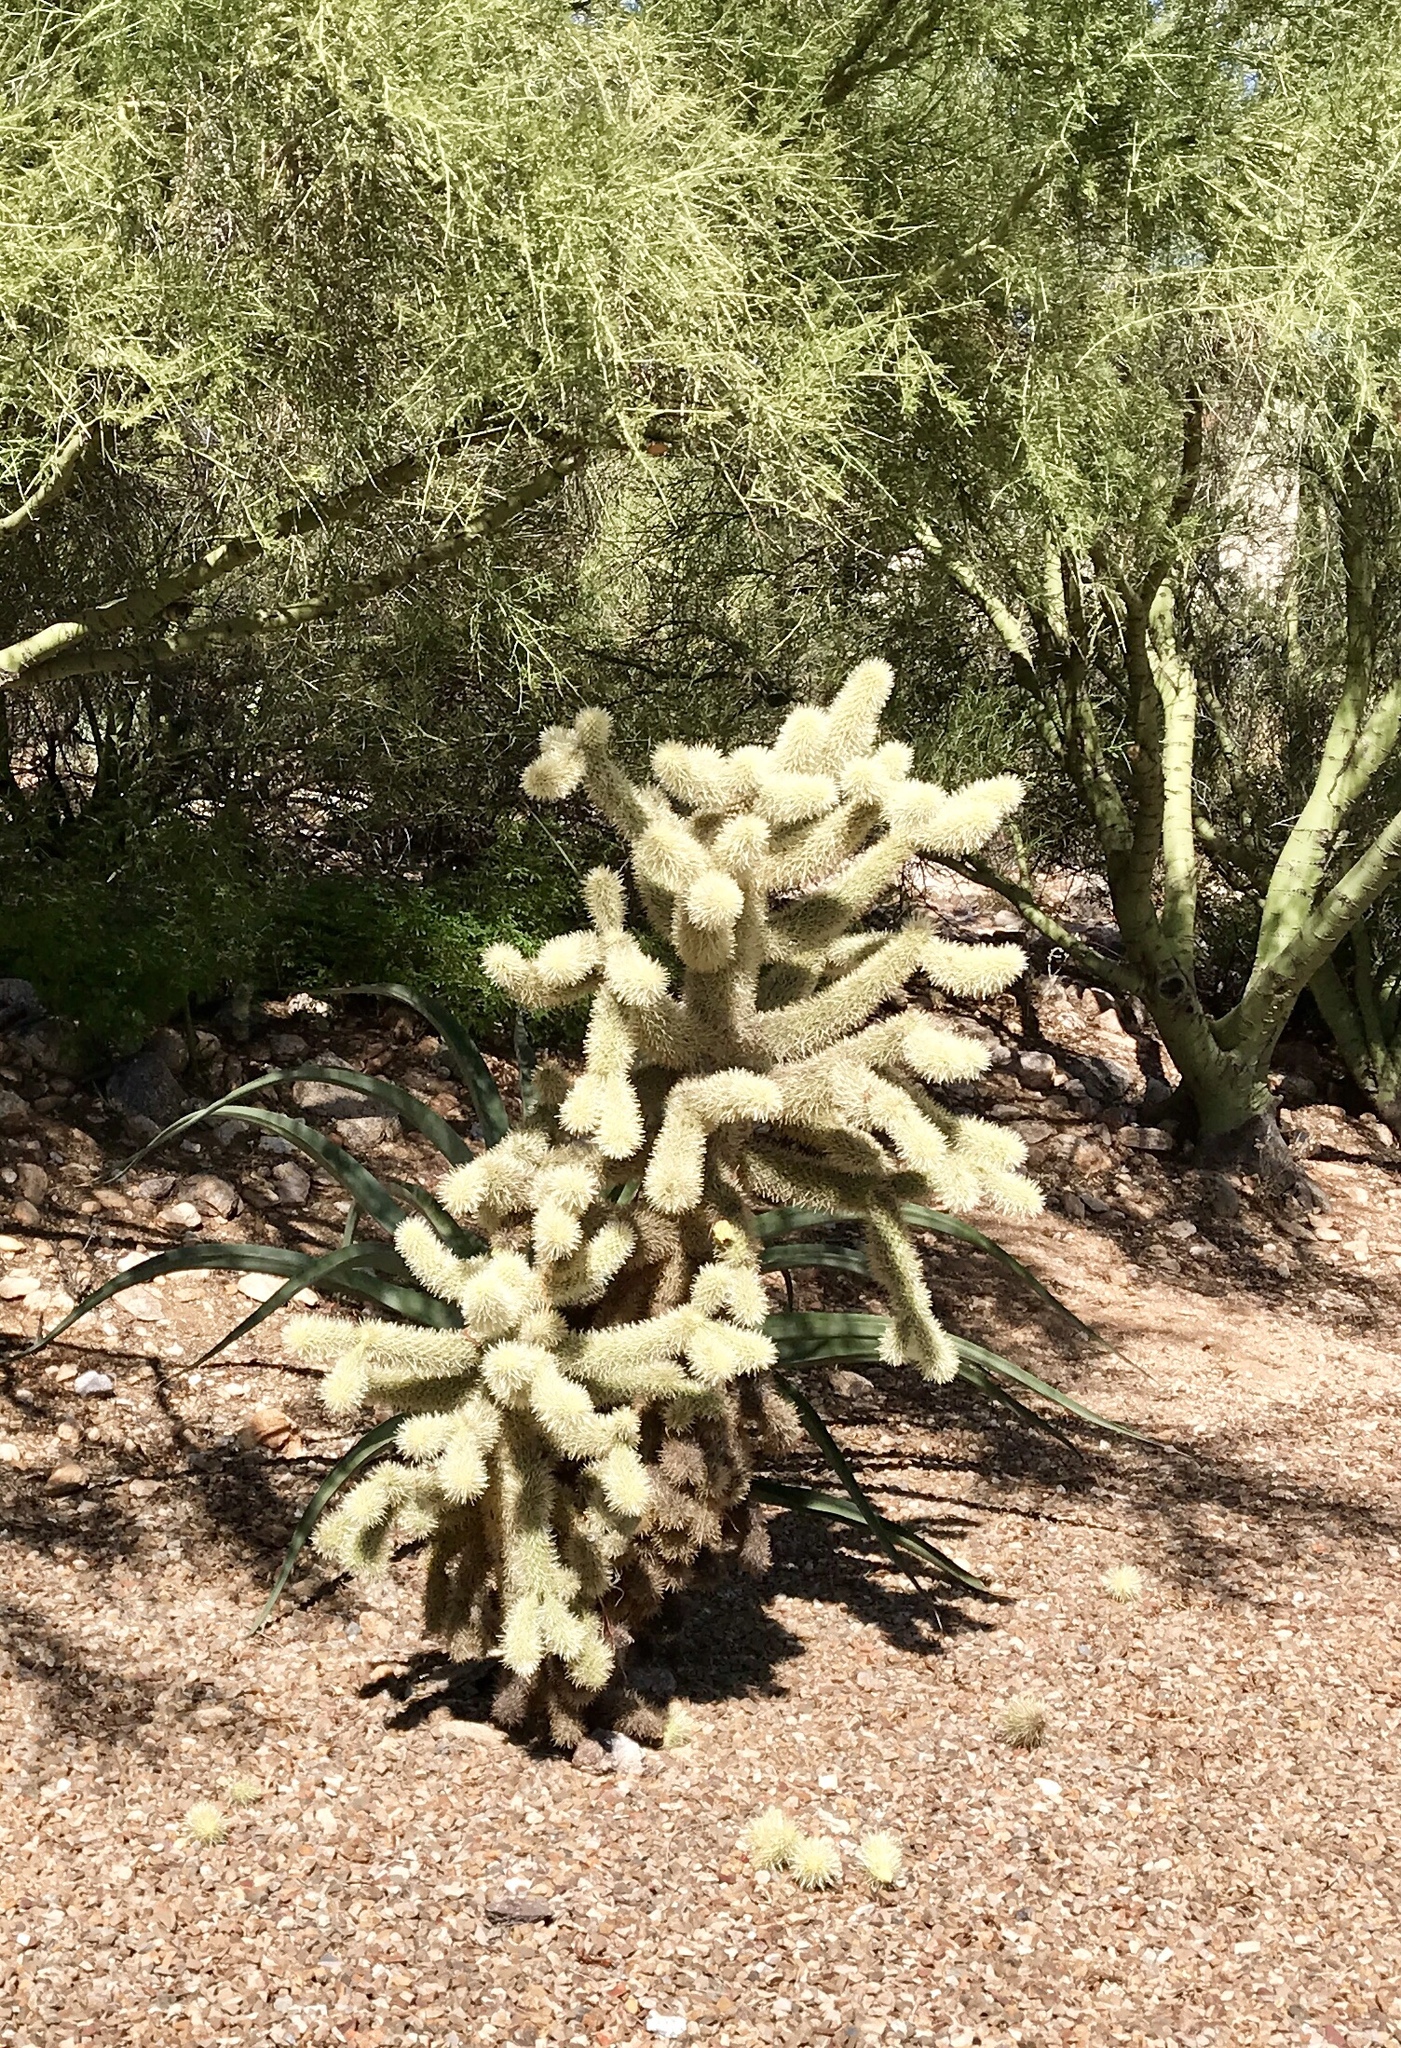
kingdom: Plantae
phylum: Tracheophyta
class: Magnoliopsida
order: Caryophyllales
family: Cactaceae
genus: Cylindropuntia
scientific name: Cylindropuntia fosbergii
